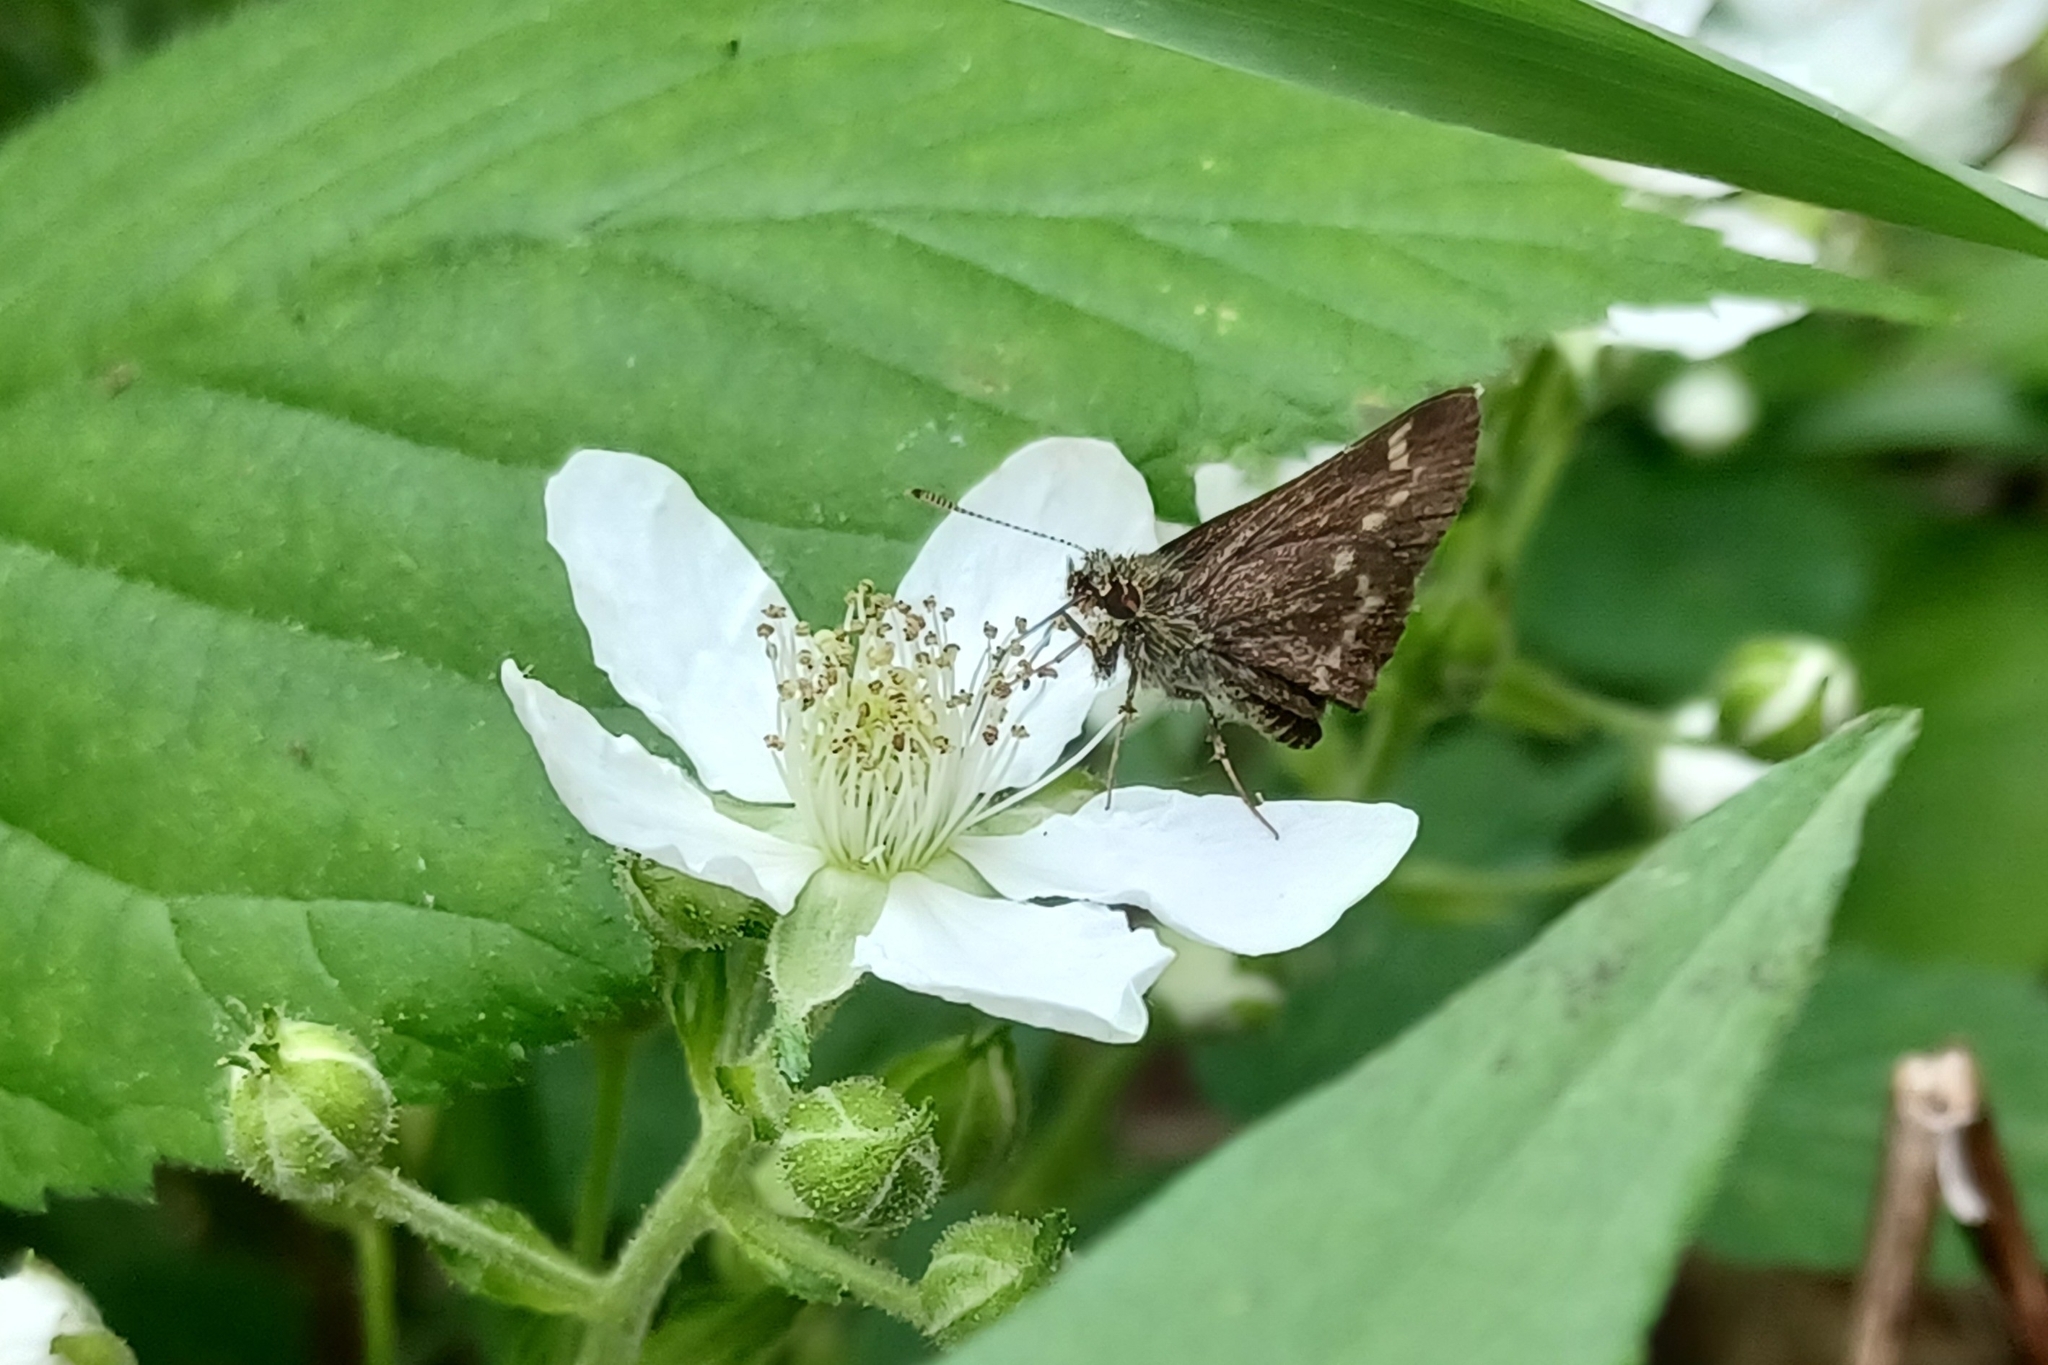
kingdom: Animalia
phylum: Arthropoda
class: Insecta
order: Lepidoptera
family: Hesperiidae
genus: Mastor
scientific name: Mastor hegon
